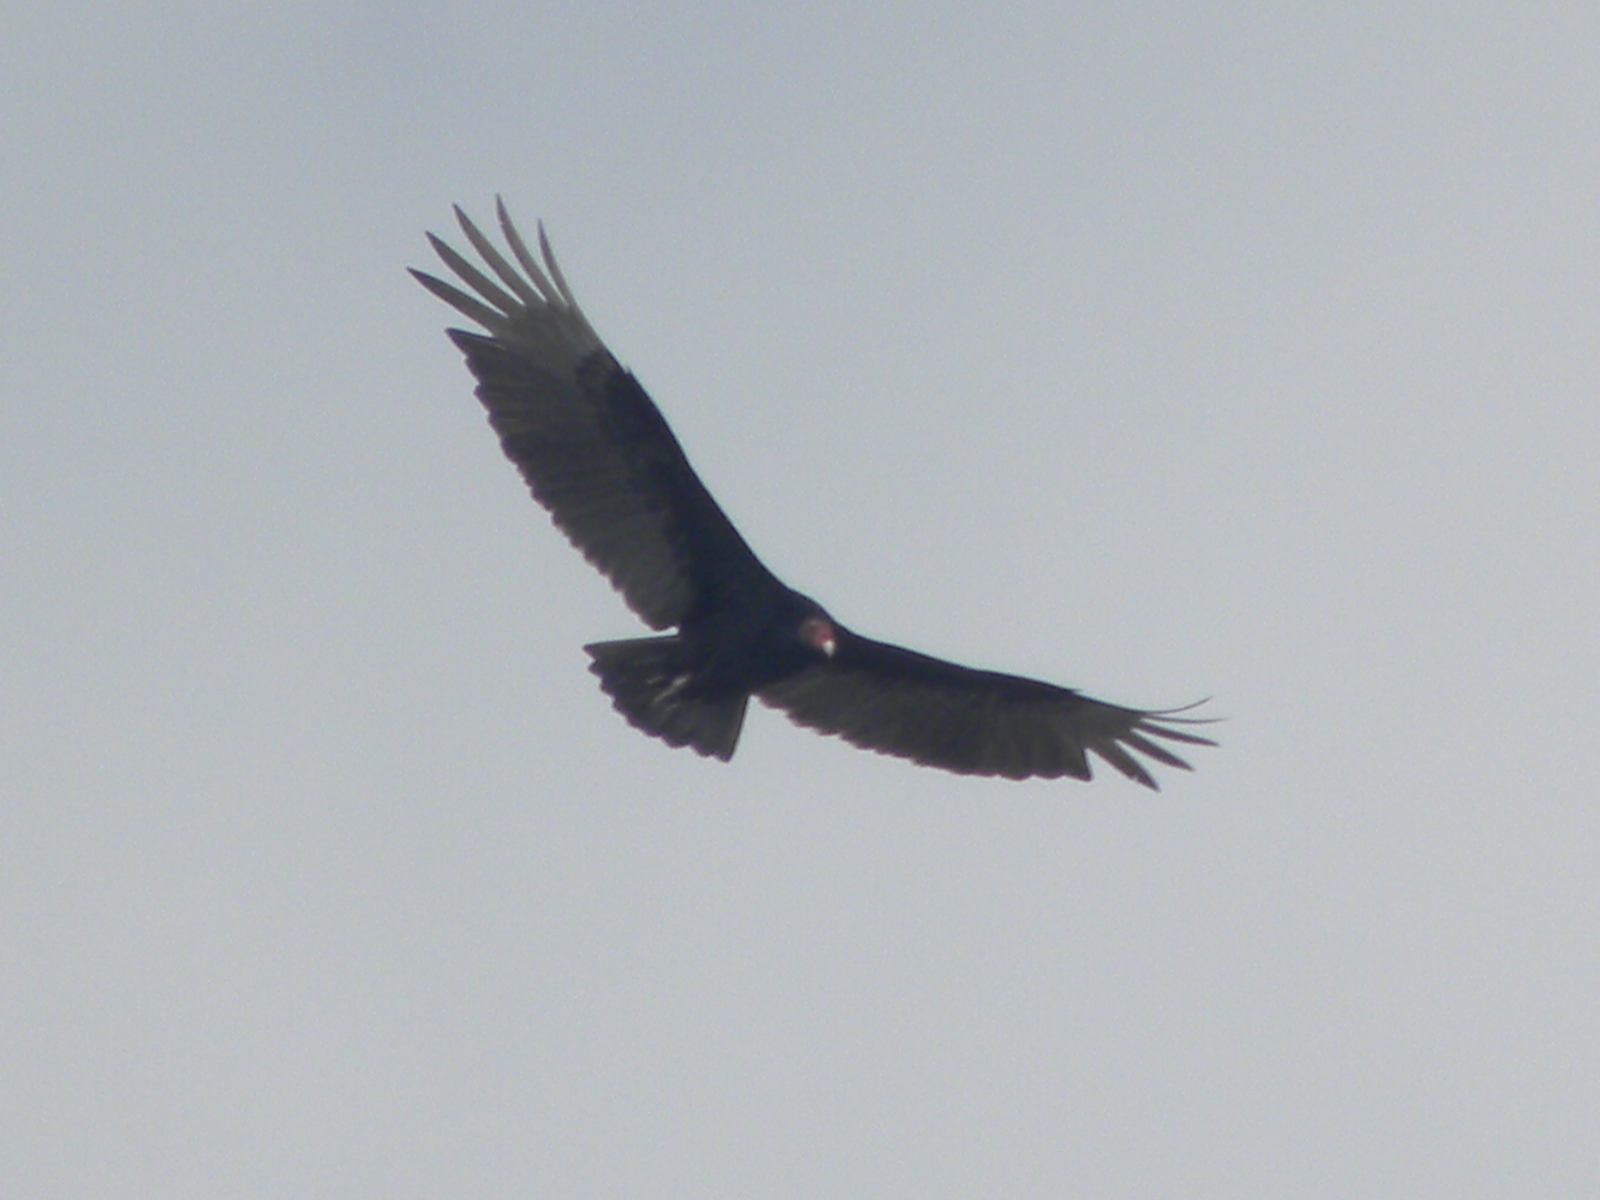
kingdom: Animalia
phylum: Chordata
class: Aves
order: Accipitriformes
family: Cathartidae
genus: Cathartes
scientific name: Cathartes aura
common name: Turkey vulture
